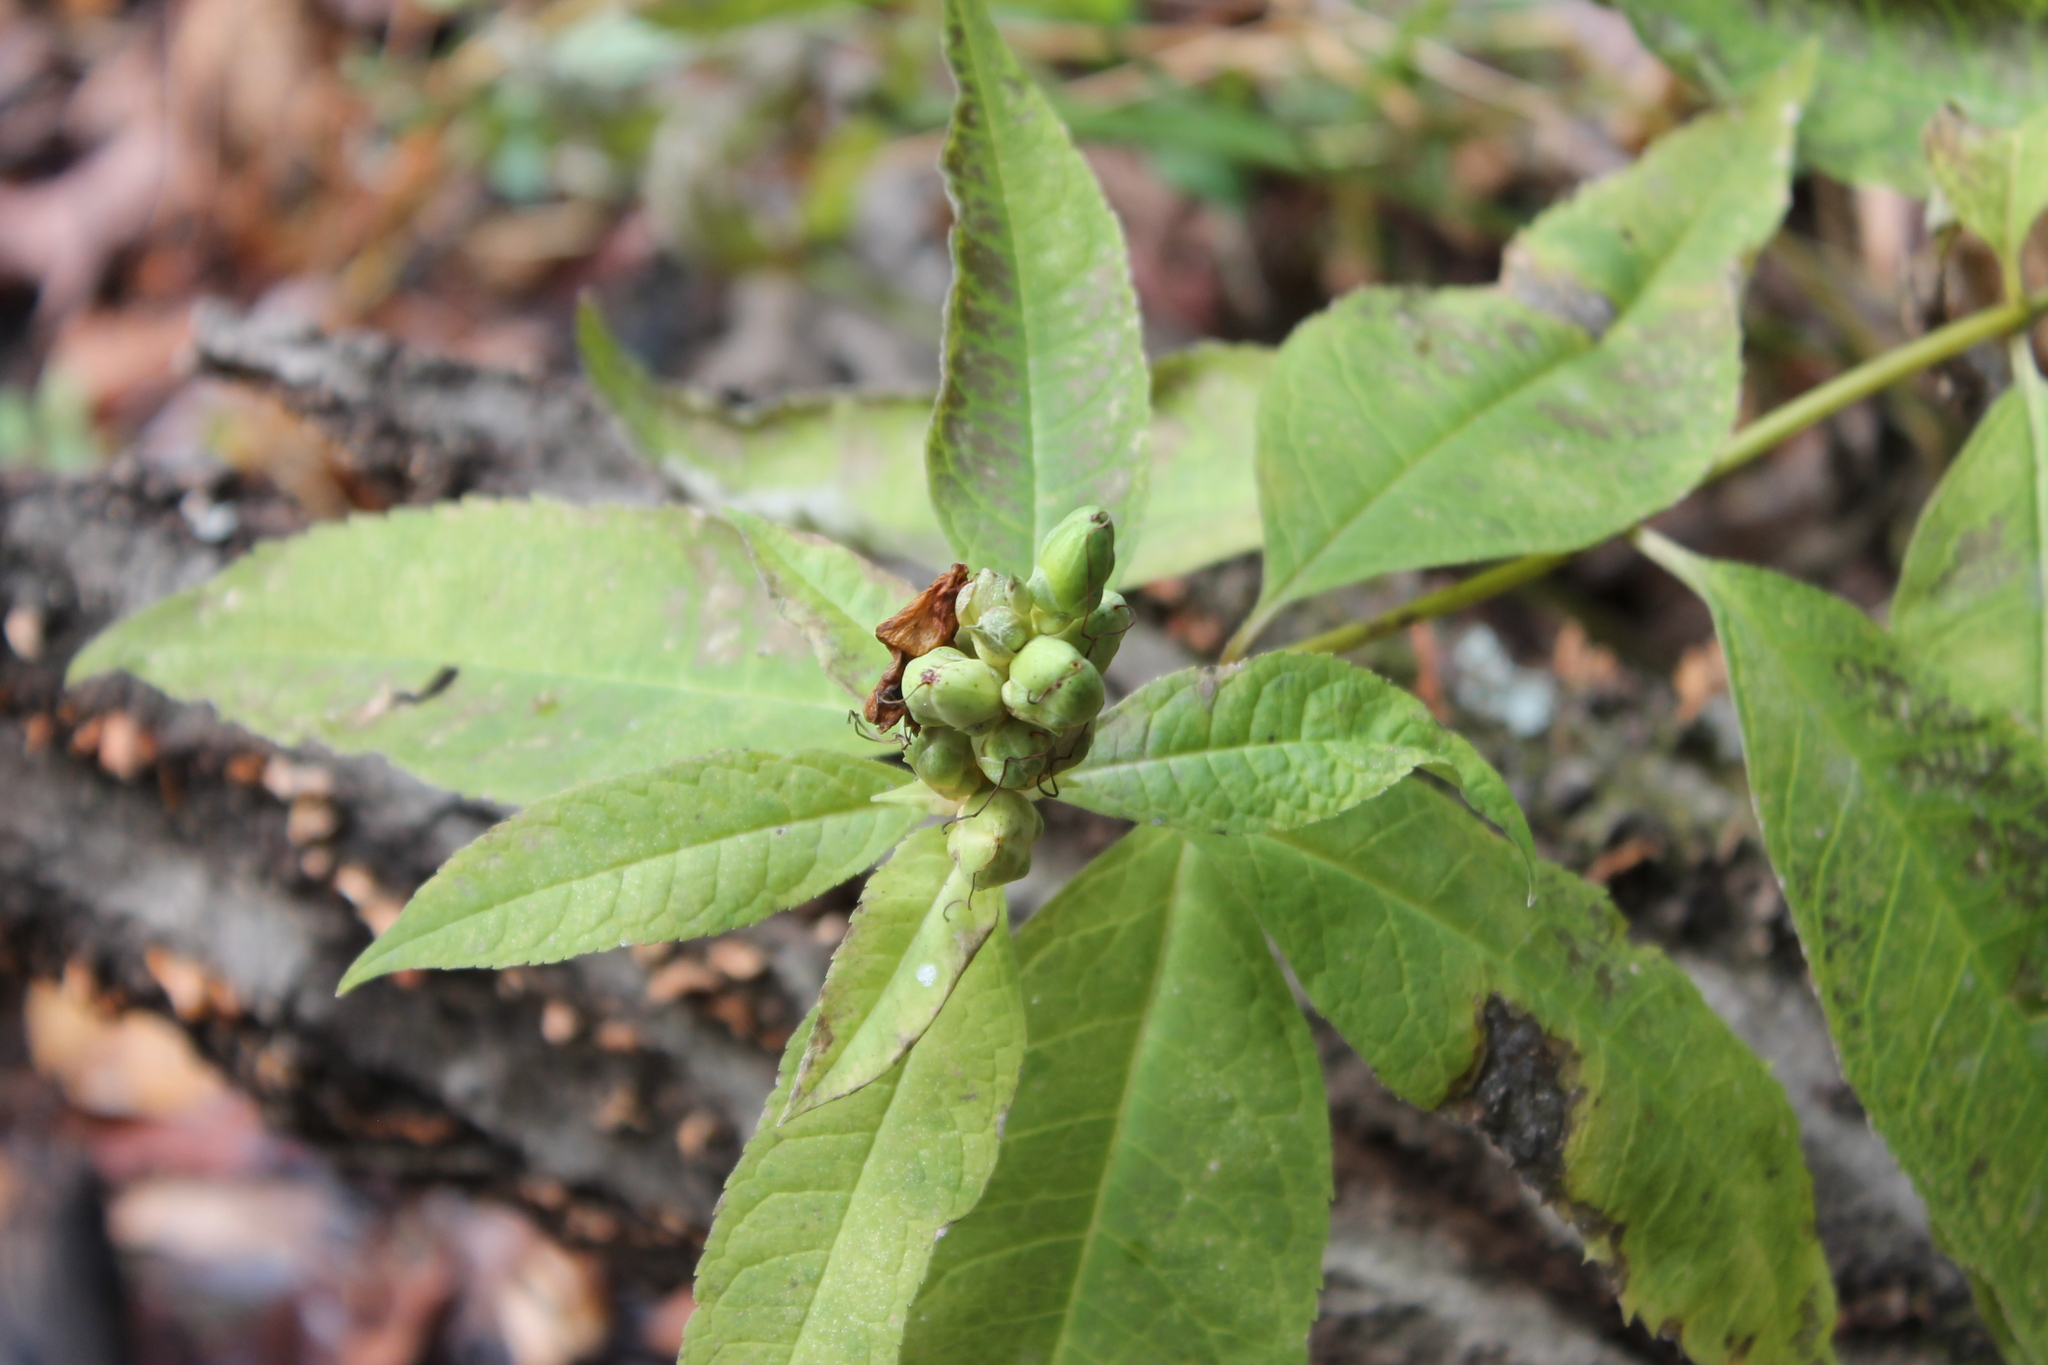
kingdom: Plantae
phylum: Tracheophyta
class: Magnoliopsida
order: Lamiales
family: Plantaginaceae
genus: Chelone
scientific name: Chelone glabra
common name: Snakehead
